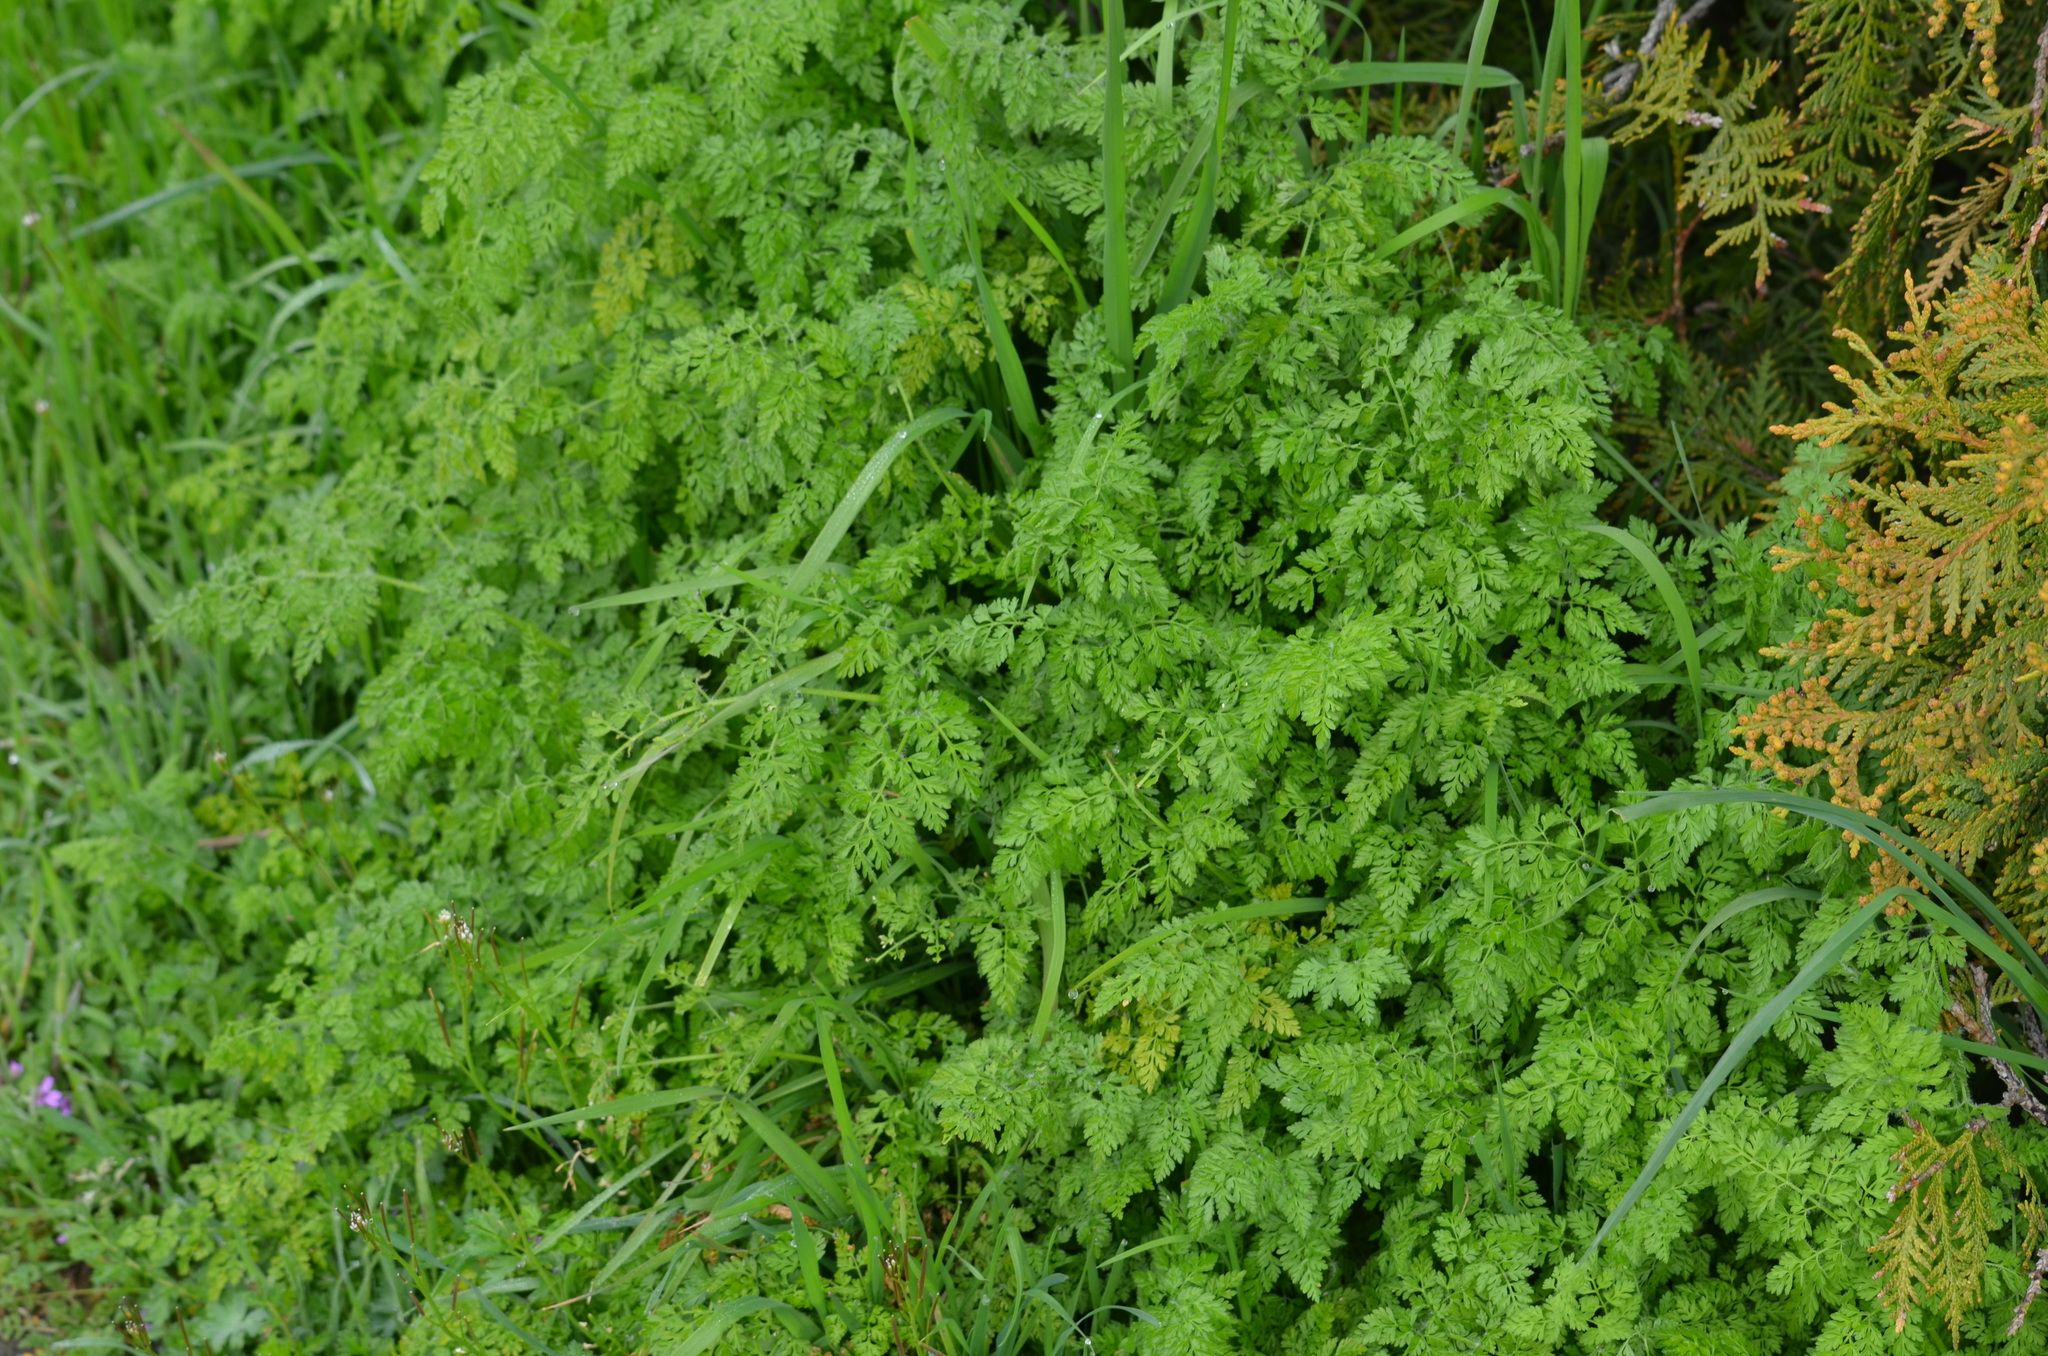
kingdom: Plantae
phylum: Tracheophyta
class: Magnoliopsida
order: Apiales
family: Apiaceae
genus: Anthriscus
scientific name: Anthriscus caucalis
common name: Bur chervil
